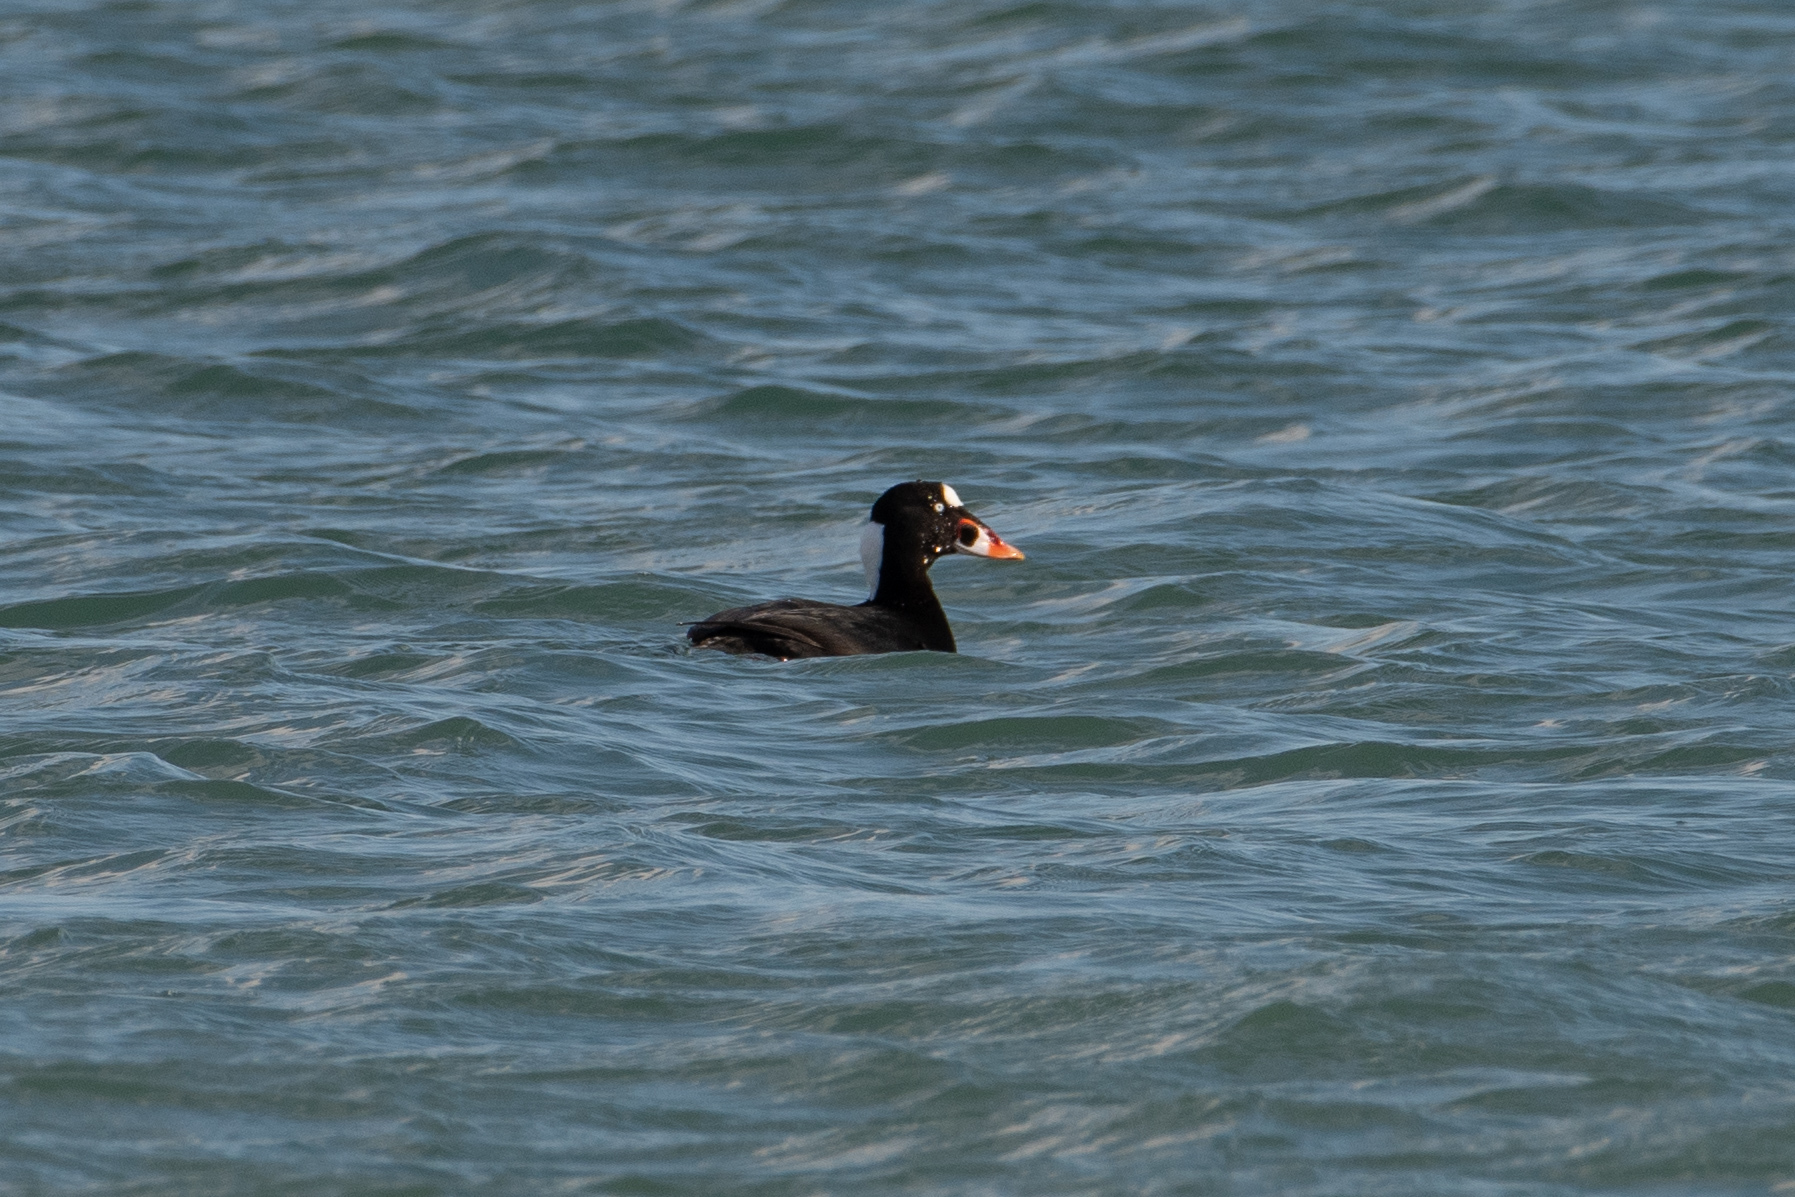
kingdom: Animalia
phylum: Chordata
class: Aves
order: Anseriformes
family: Anatidae
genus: Melanitta
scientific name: Melanitta perspicillata
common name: Surf scoter
